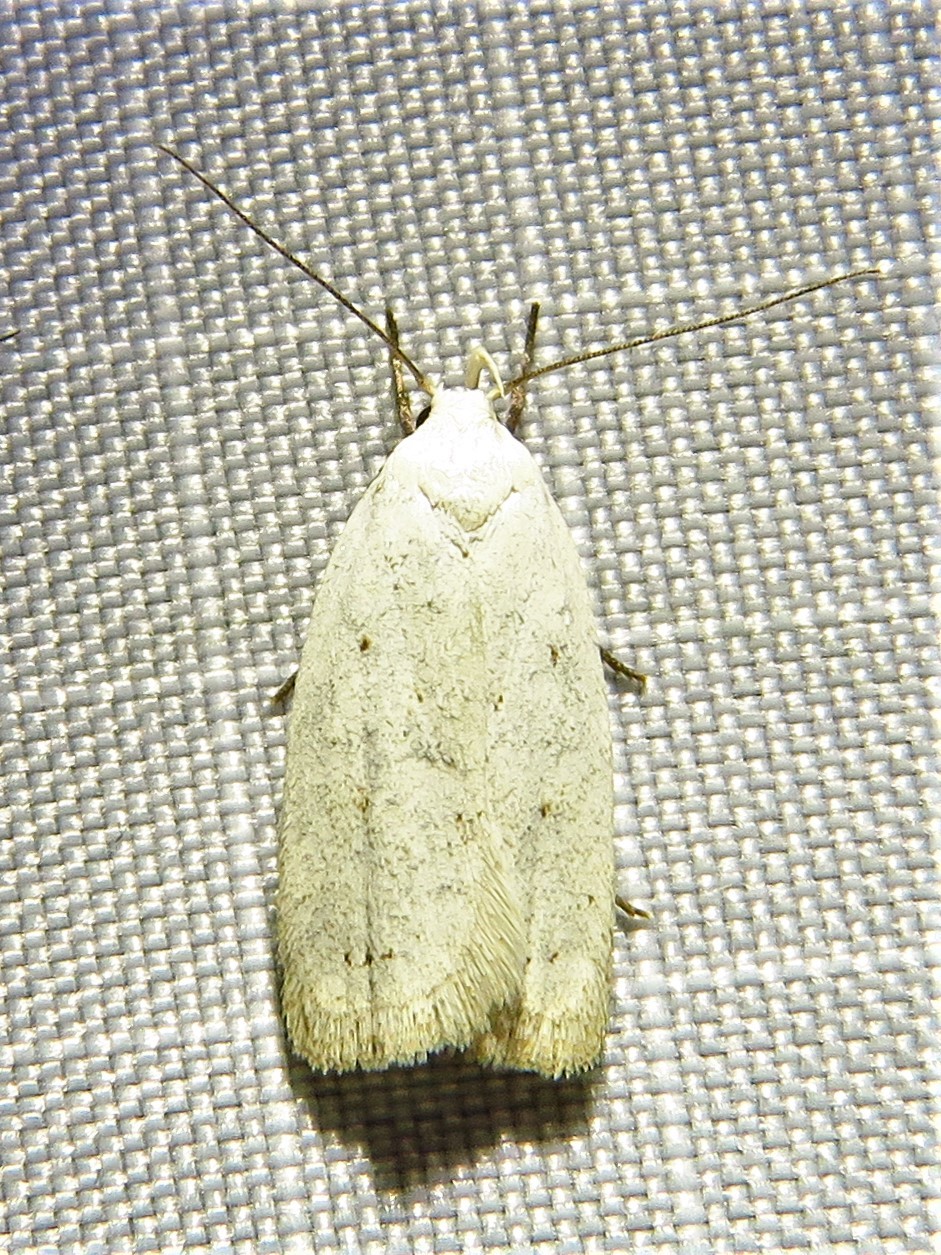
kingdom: Animalia
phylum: Arthropoda
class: Insecta
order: Lepidoptera
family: Oecophoridae
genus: Inga
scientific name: Inga cretacea
